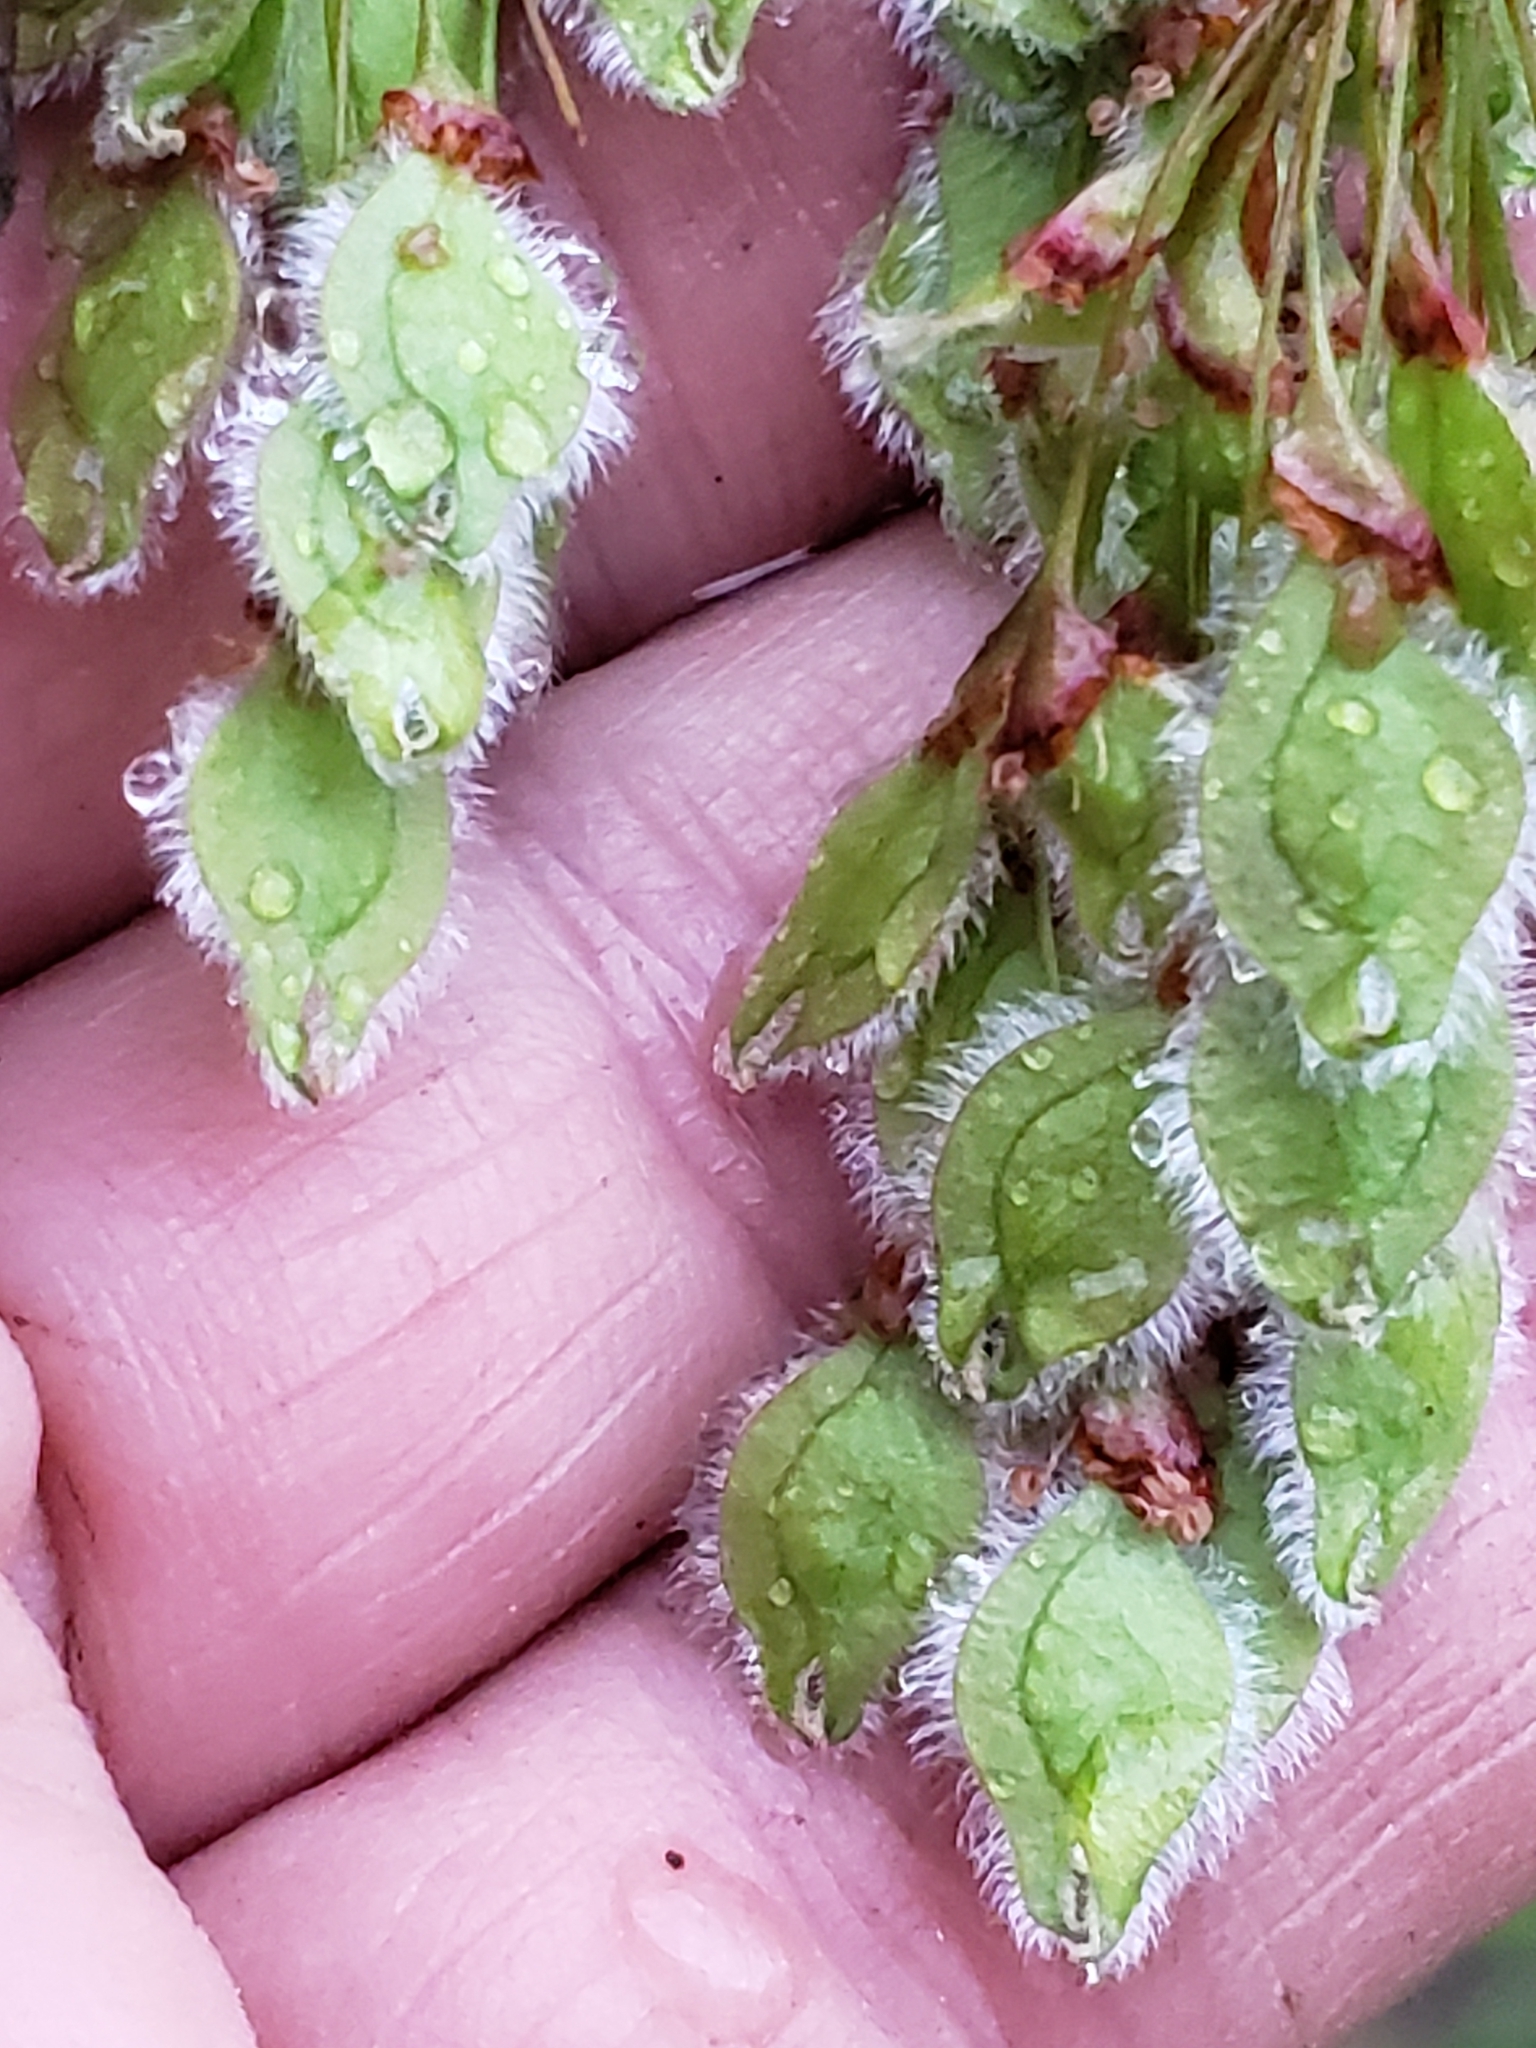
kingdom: Plantae
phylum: Tracheophyta
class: Magnoliopsida
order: Rosales
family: Ulmaceae
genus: Ulmus
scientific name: Ulmus americana
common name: American elm
